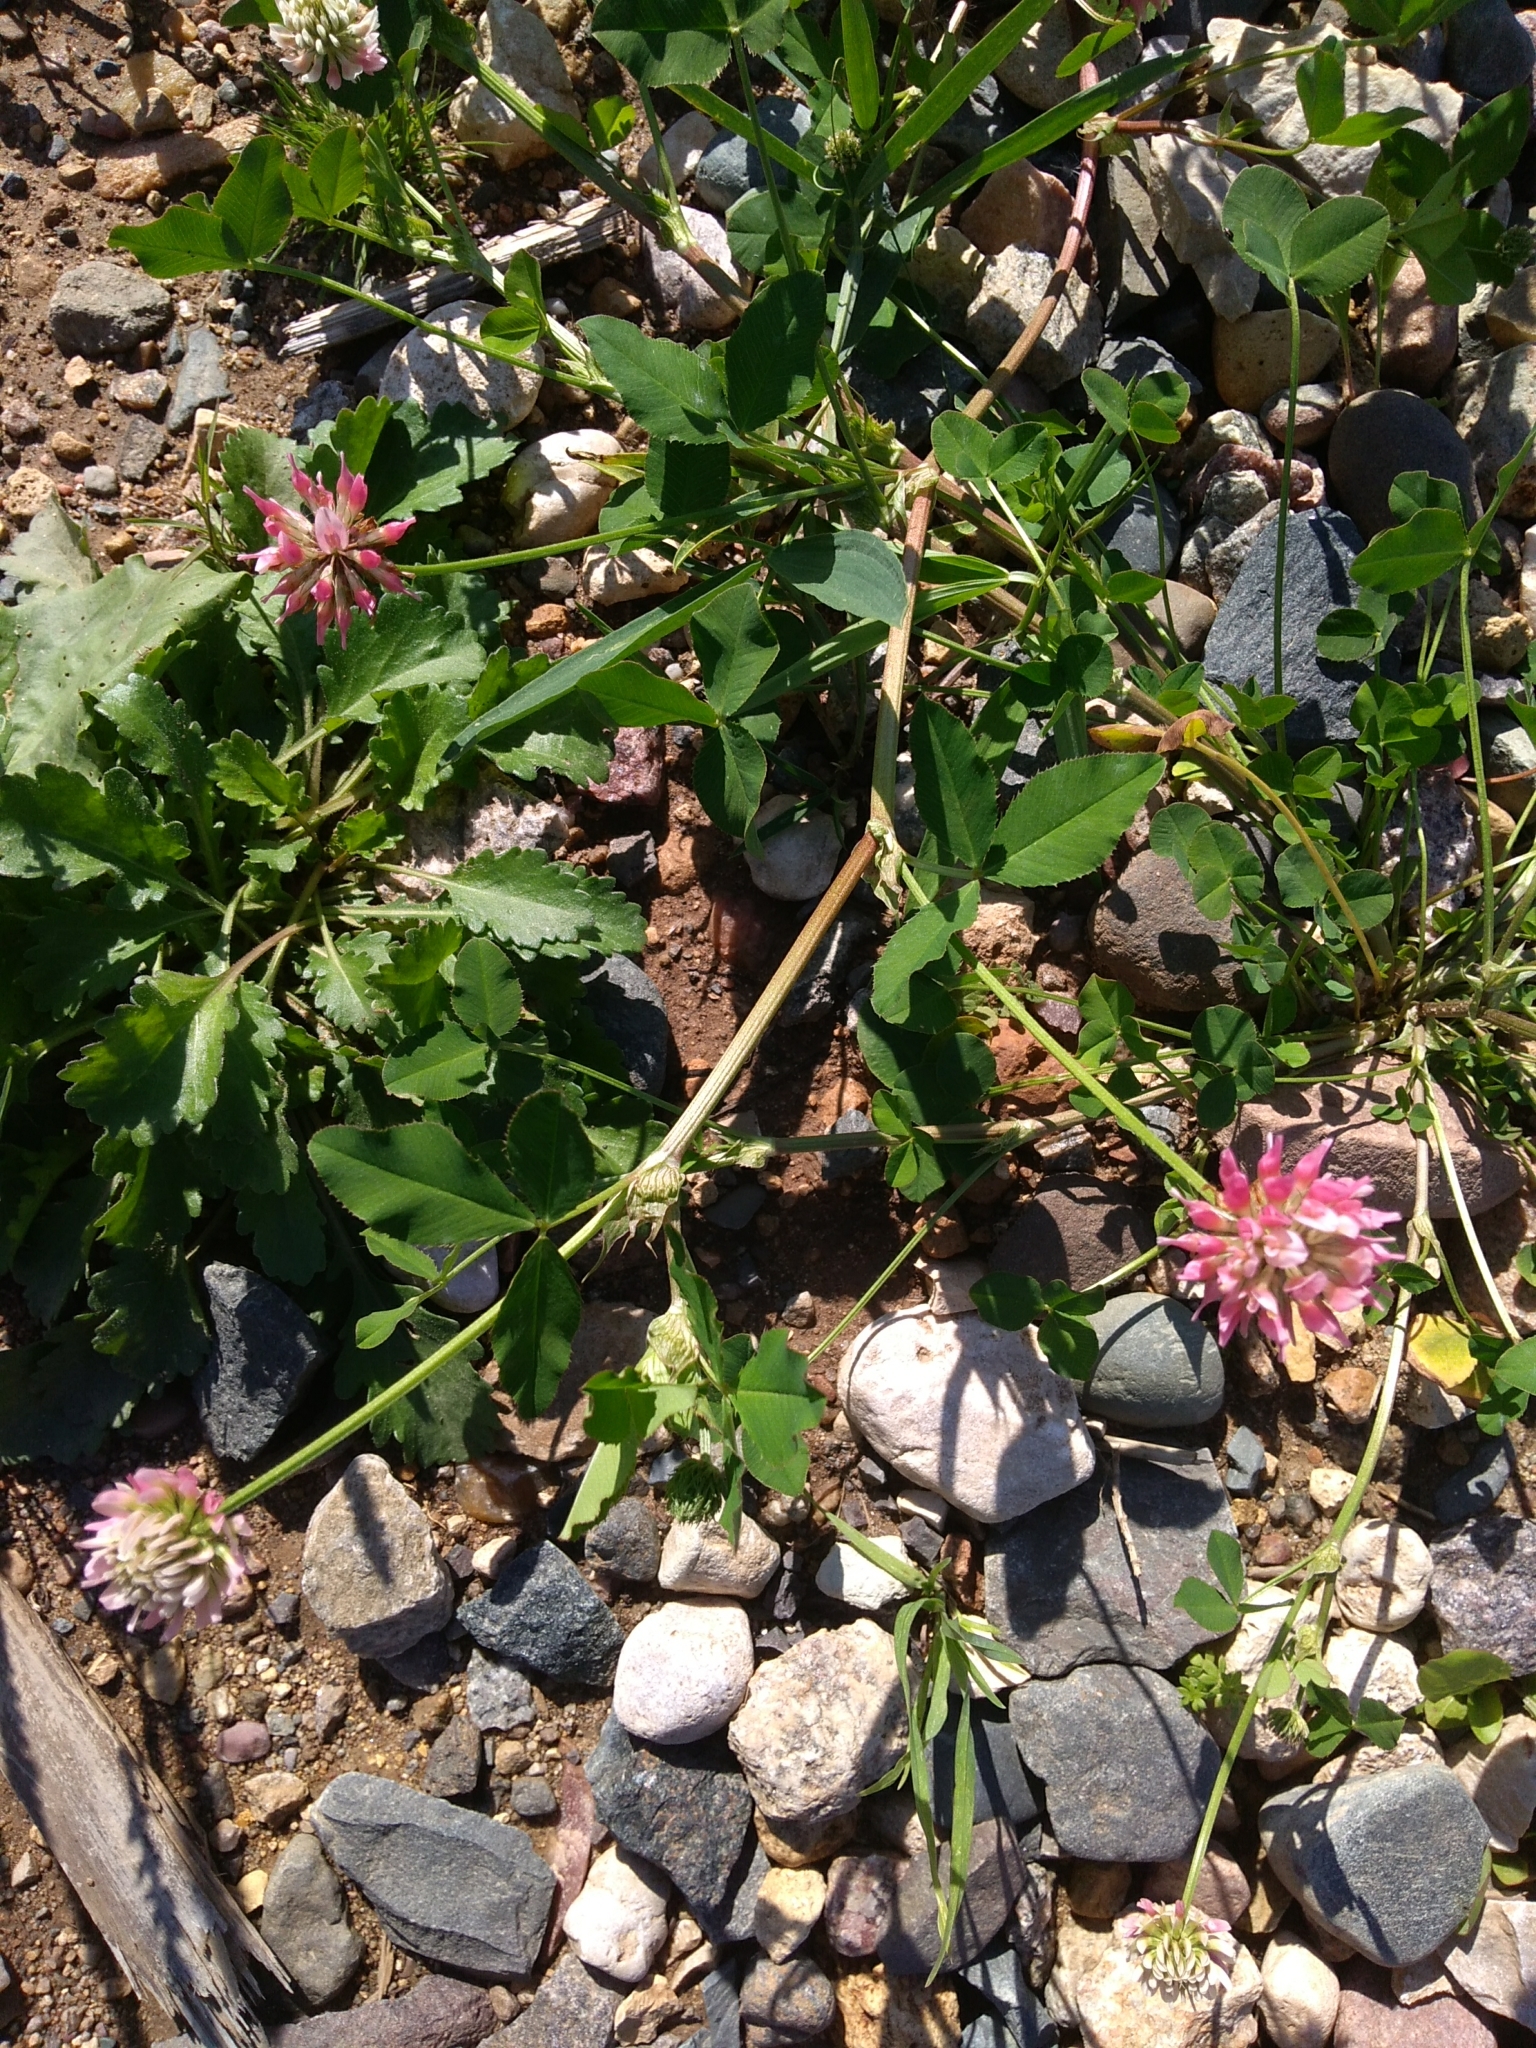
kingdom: Plantae
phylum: Tracheophyta
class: Magnoliopsida
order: Fabales
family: Fabaceae
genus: Trifolium
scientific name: Trifolium hybridum
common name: Alsike clover
